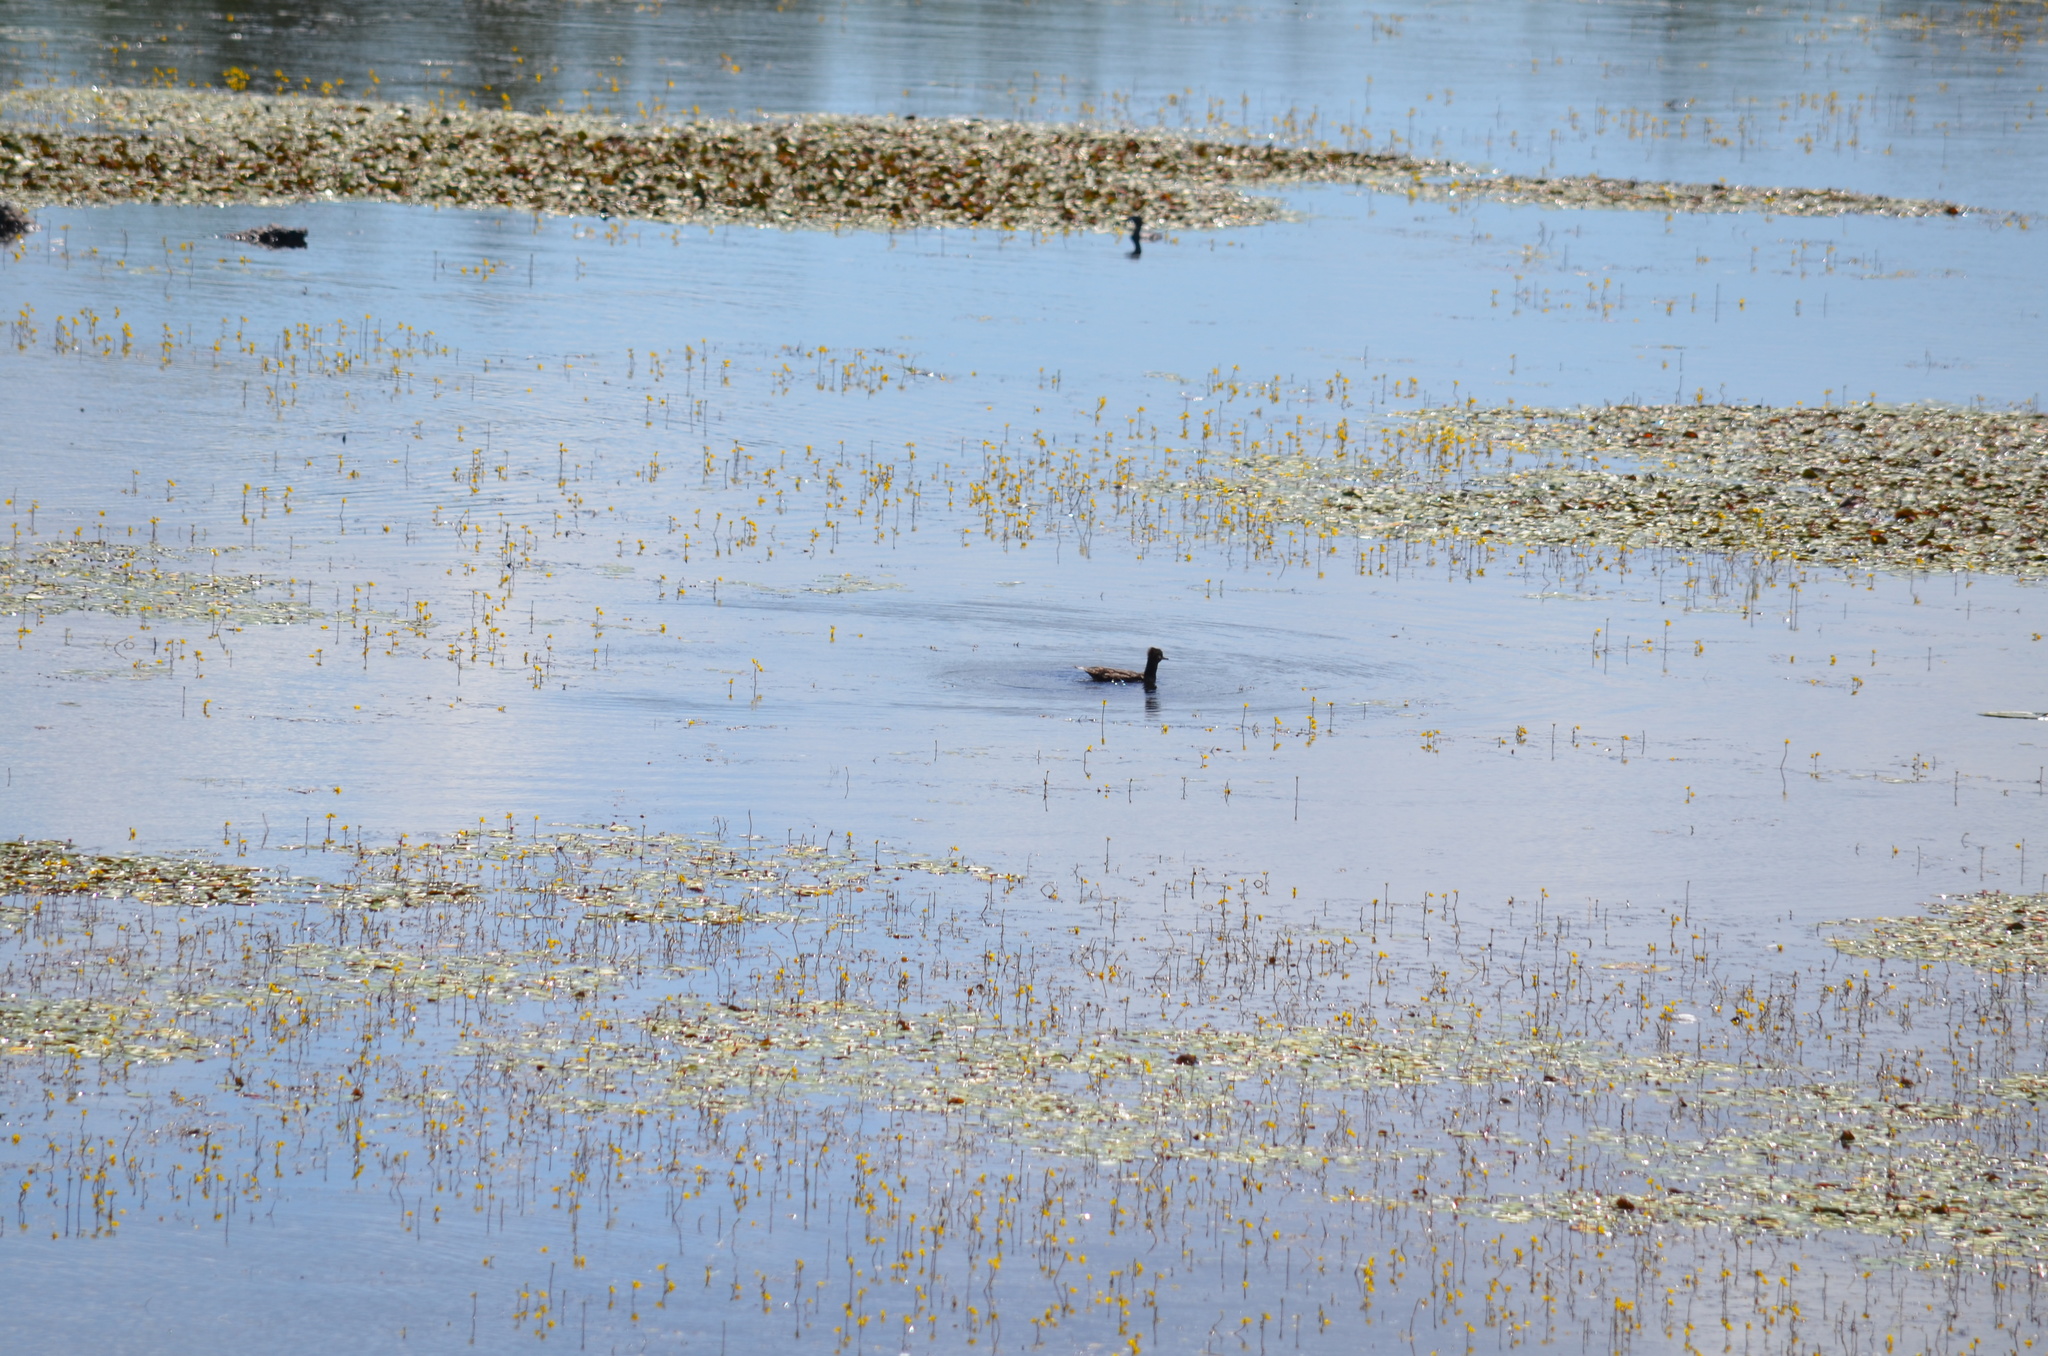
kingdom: Animalia
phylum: Chordata
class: Aves
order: Anseriformes
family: Anatidae
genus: Lophodytes
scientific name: Lophodytes cucullatus
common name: Hooded merganser
